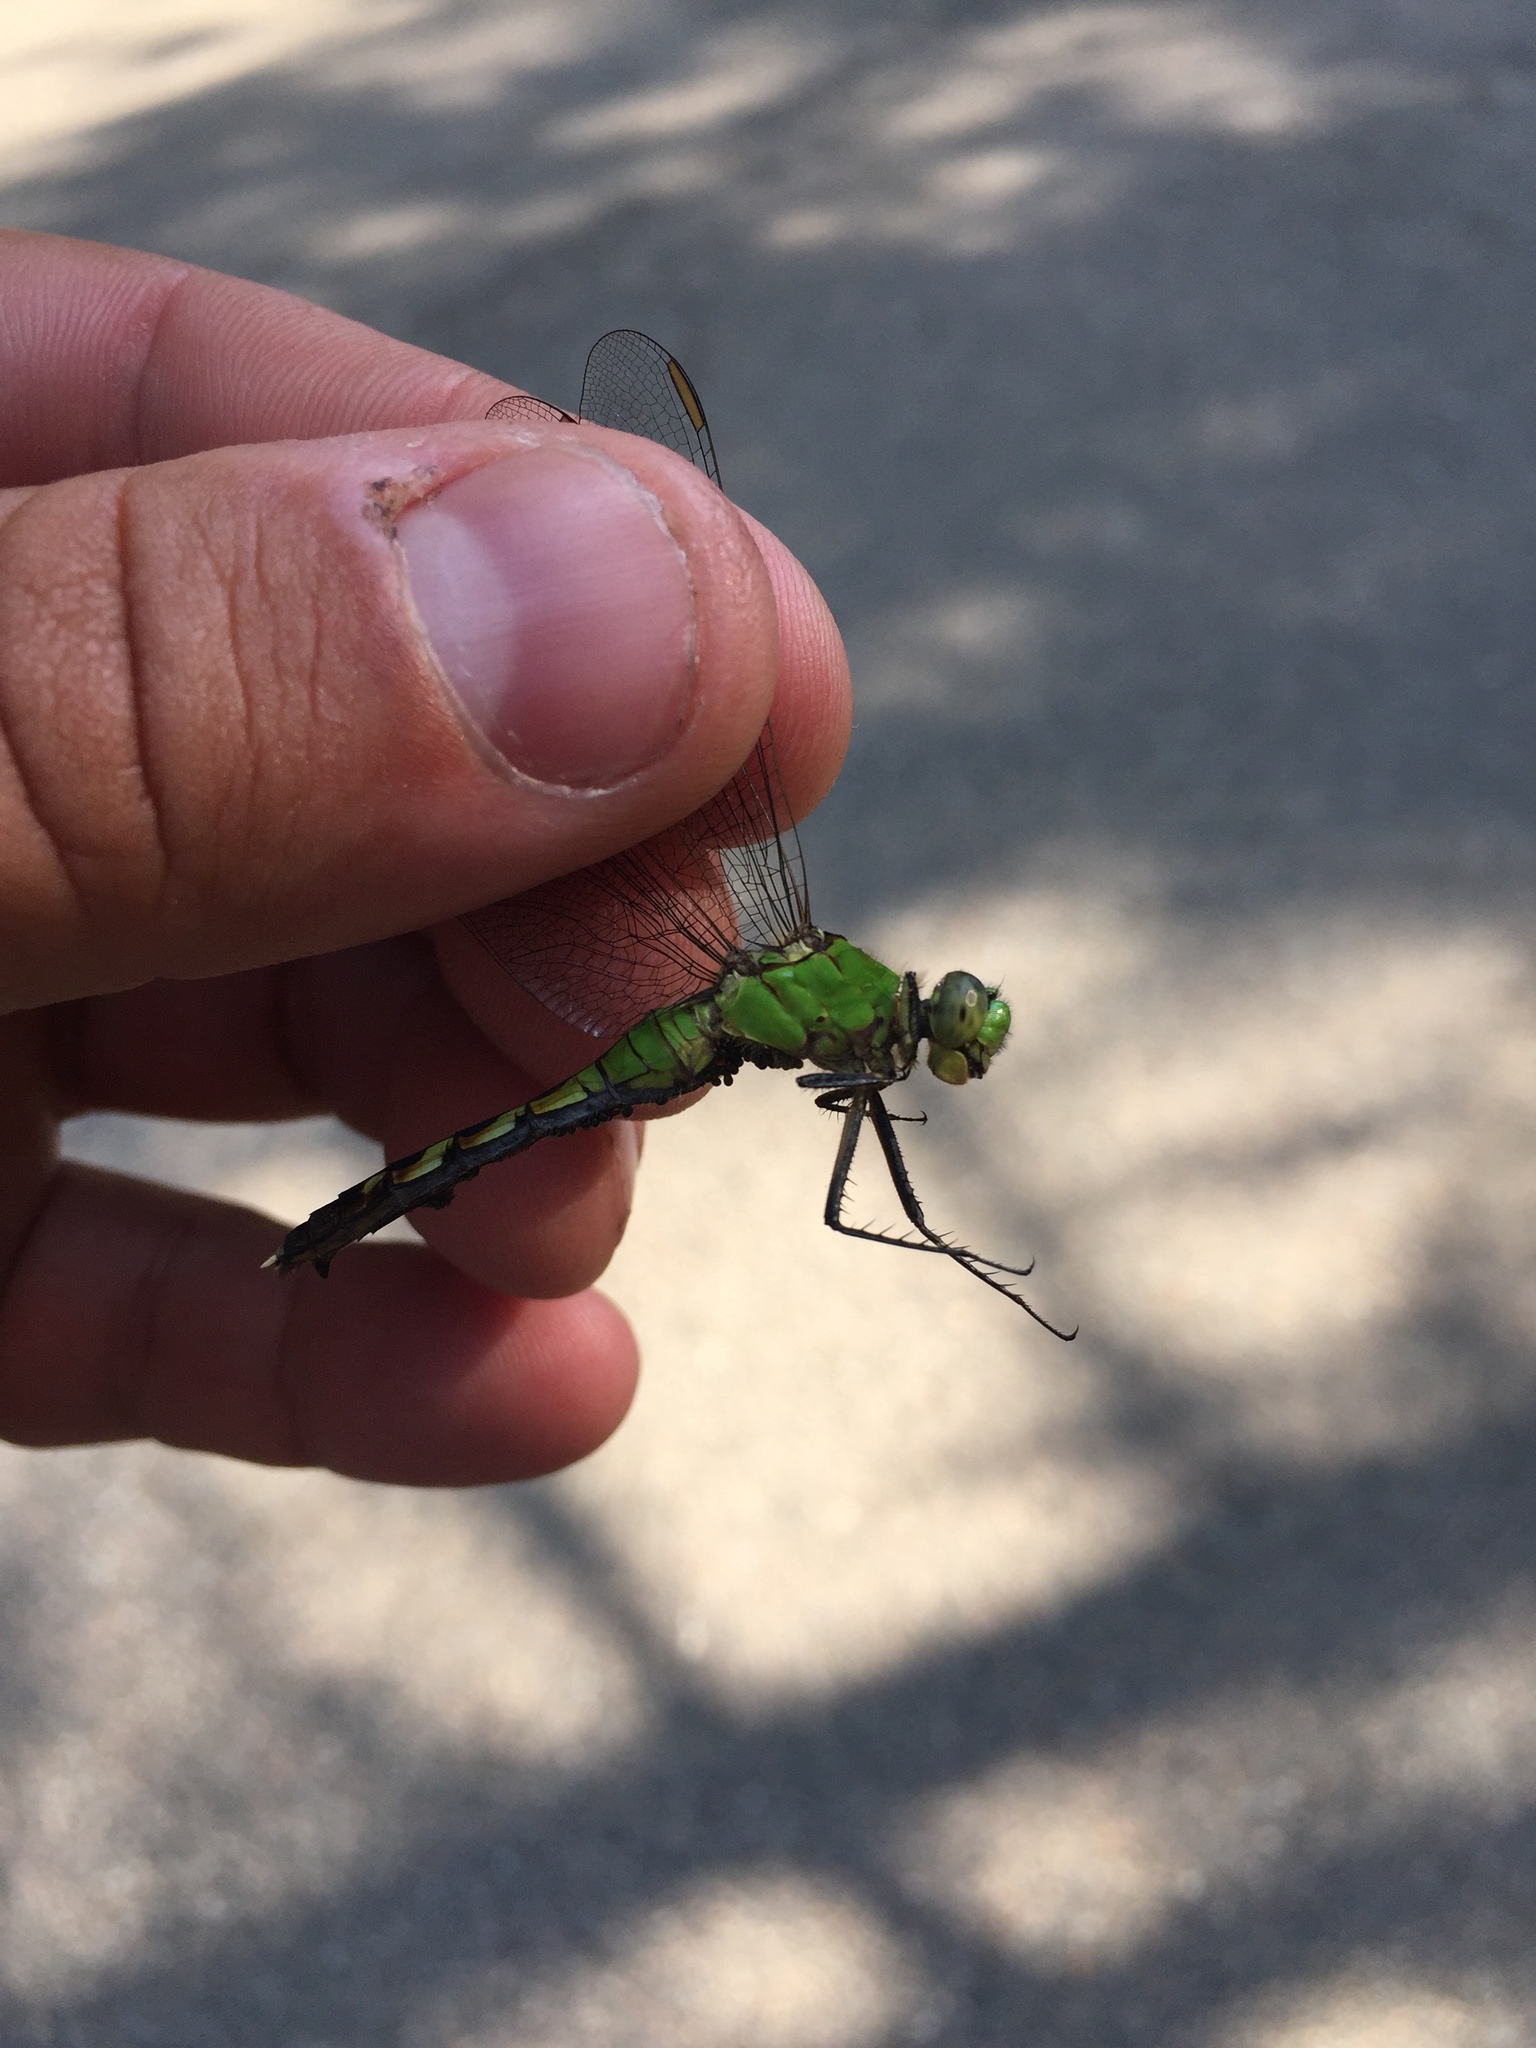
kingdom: Animalia
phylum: Arthropoda
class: Insecta
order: Odonata
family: Libellulidae
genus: Erythemis
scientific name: Erythemis simplicicollis
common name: Eastern pondhawk
